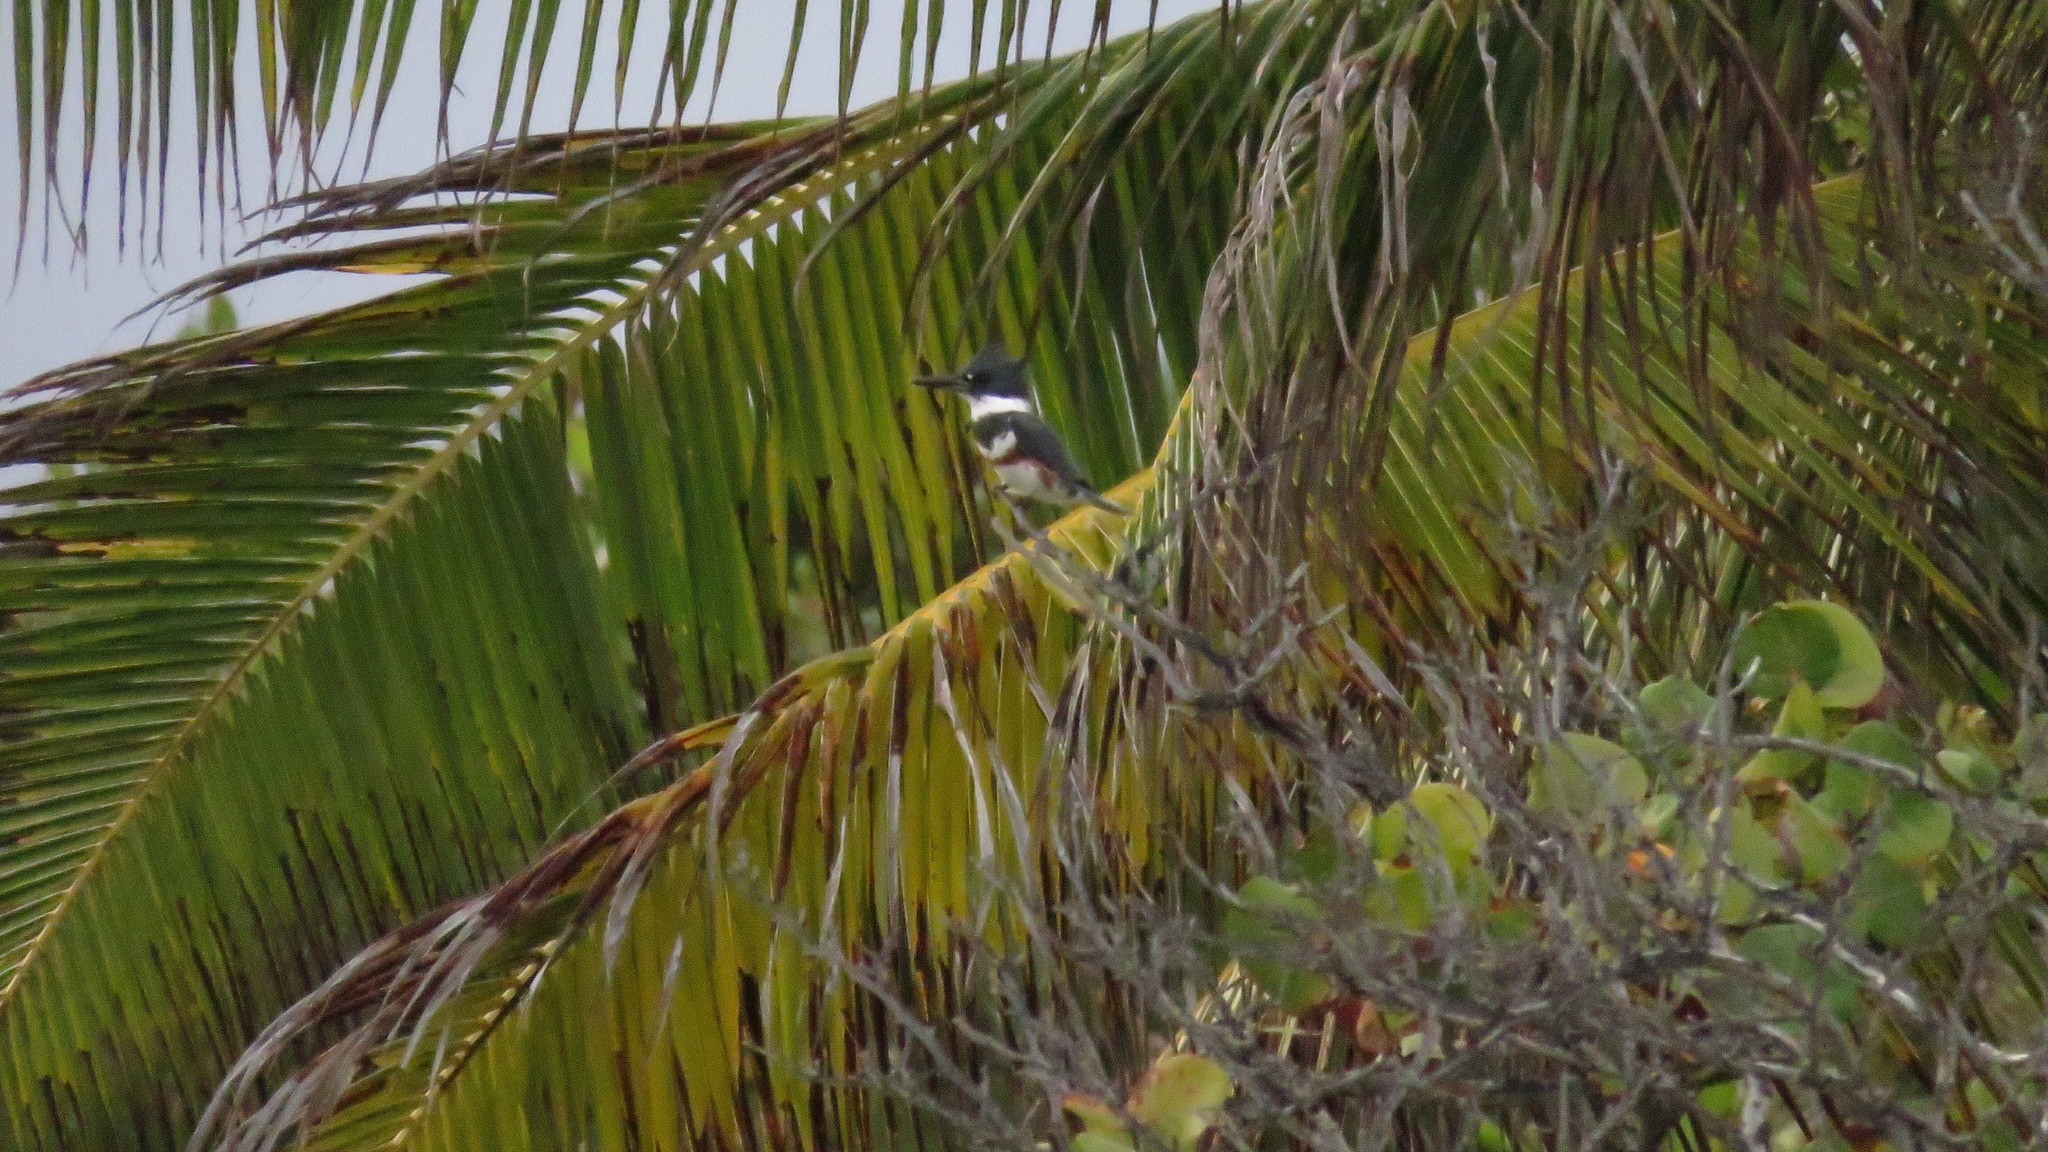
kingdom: Animalia
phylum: Chordata
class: Aves
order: Coraciiformes
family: Alcedinidae
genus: Megaceryle
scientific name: Megaceryle alcyon
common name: Belted kingfisher
